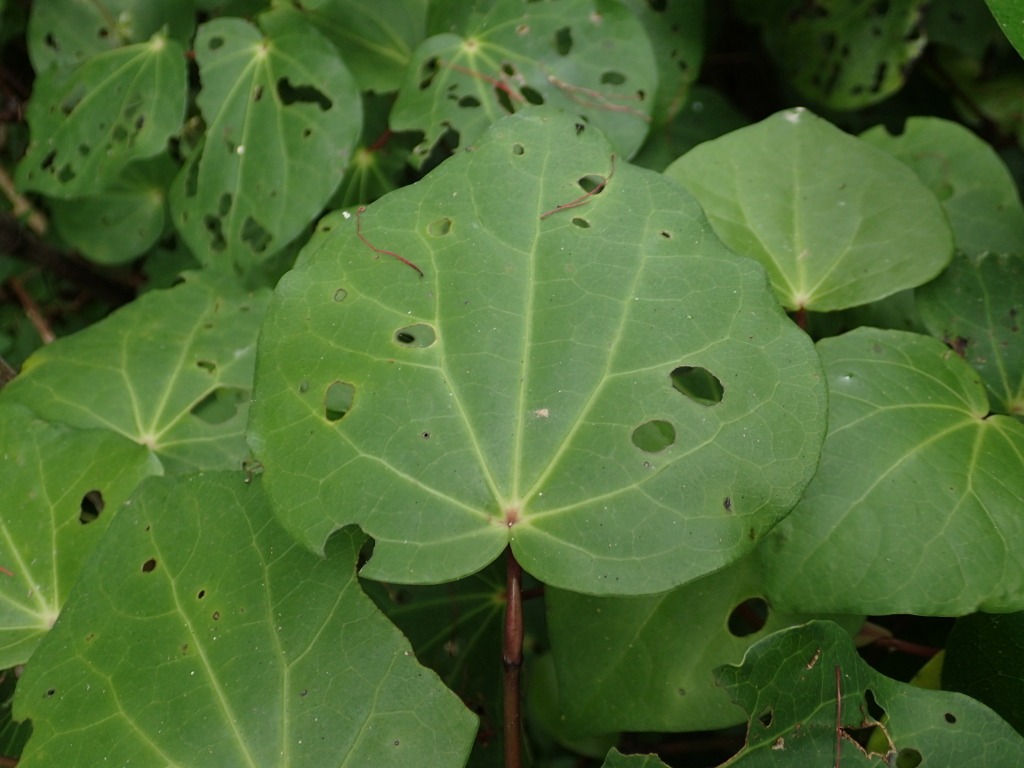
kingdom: Plantae
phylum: Tracheophyta
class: Magnoliopsida
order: Piperales
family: Piperaceae
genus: Macropiper
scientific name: Macropiper excelsum
